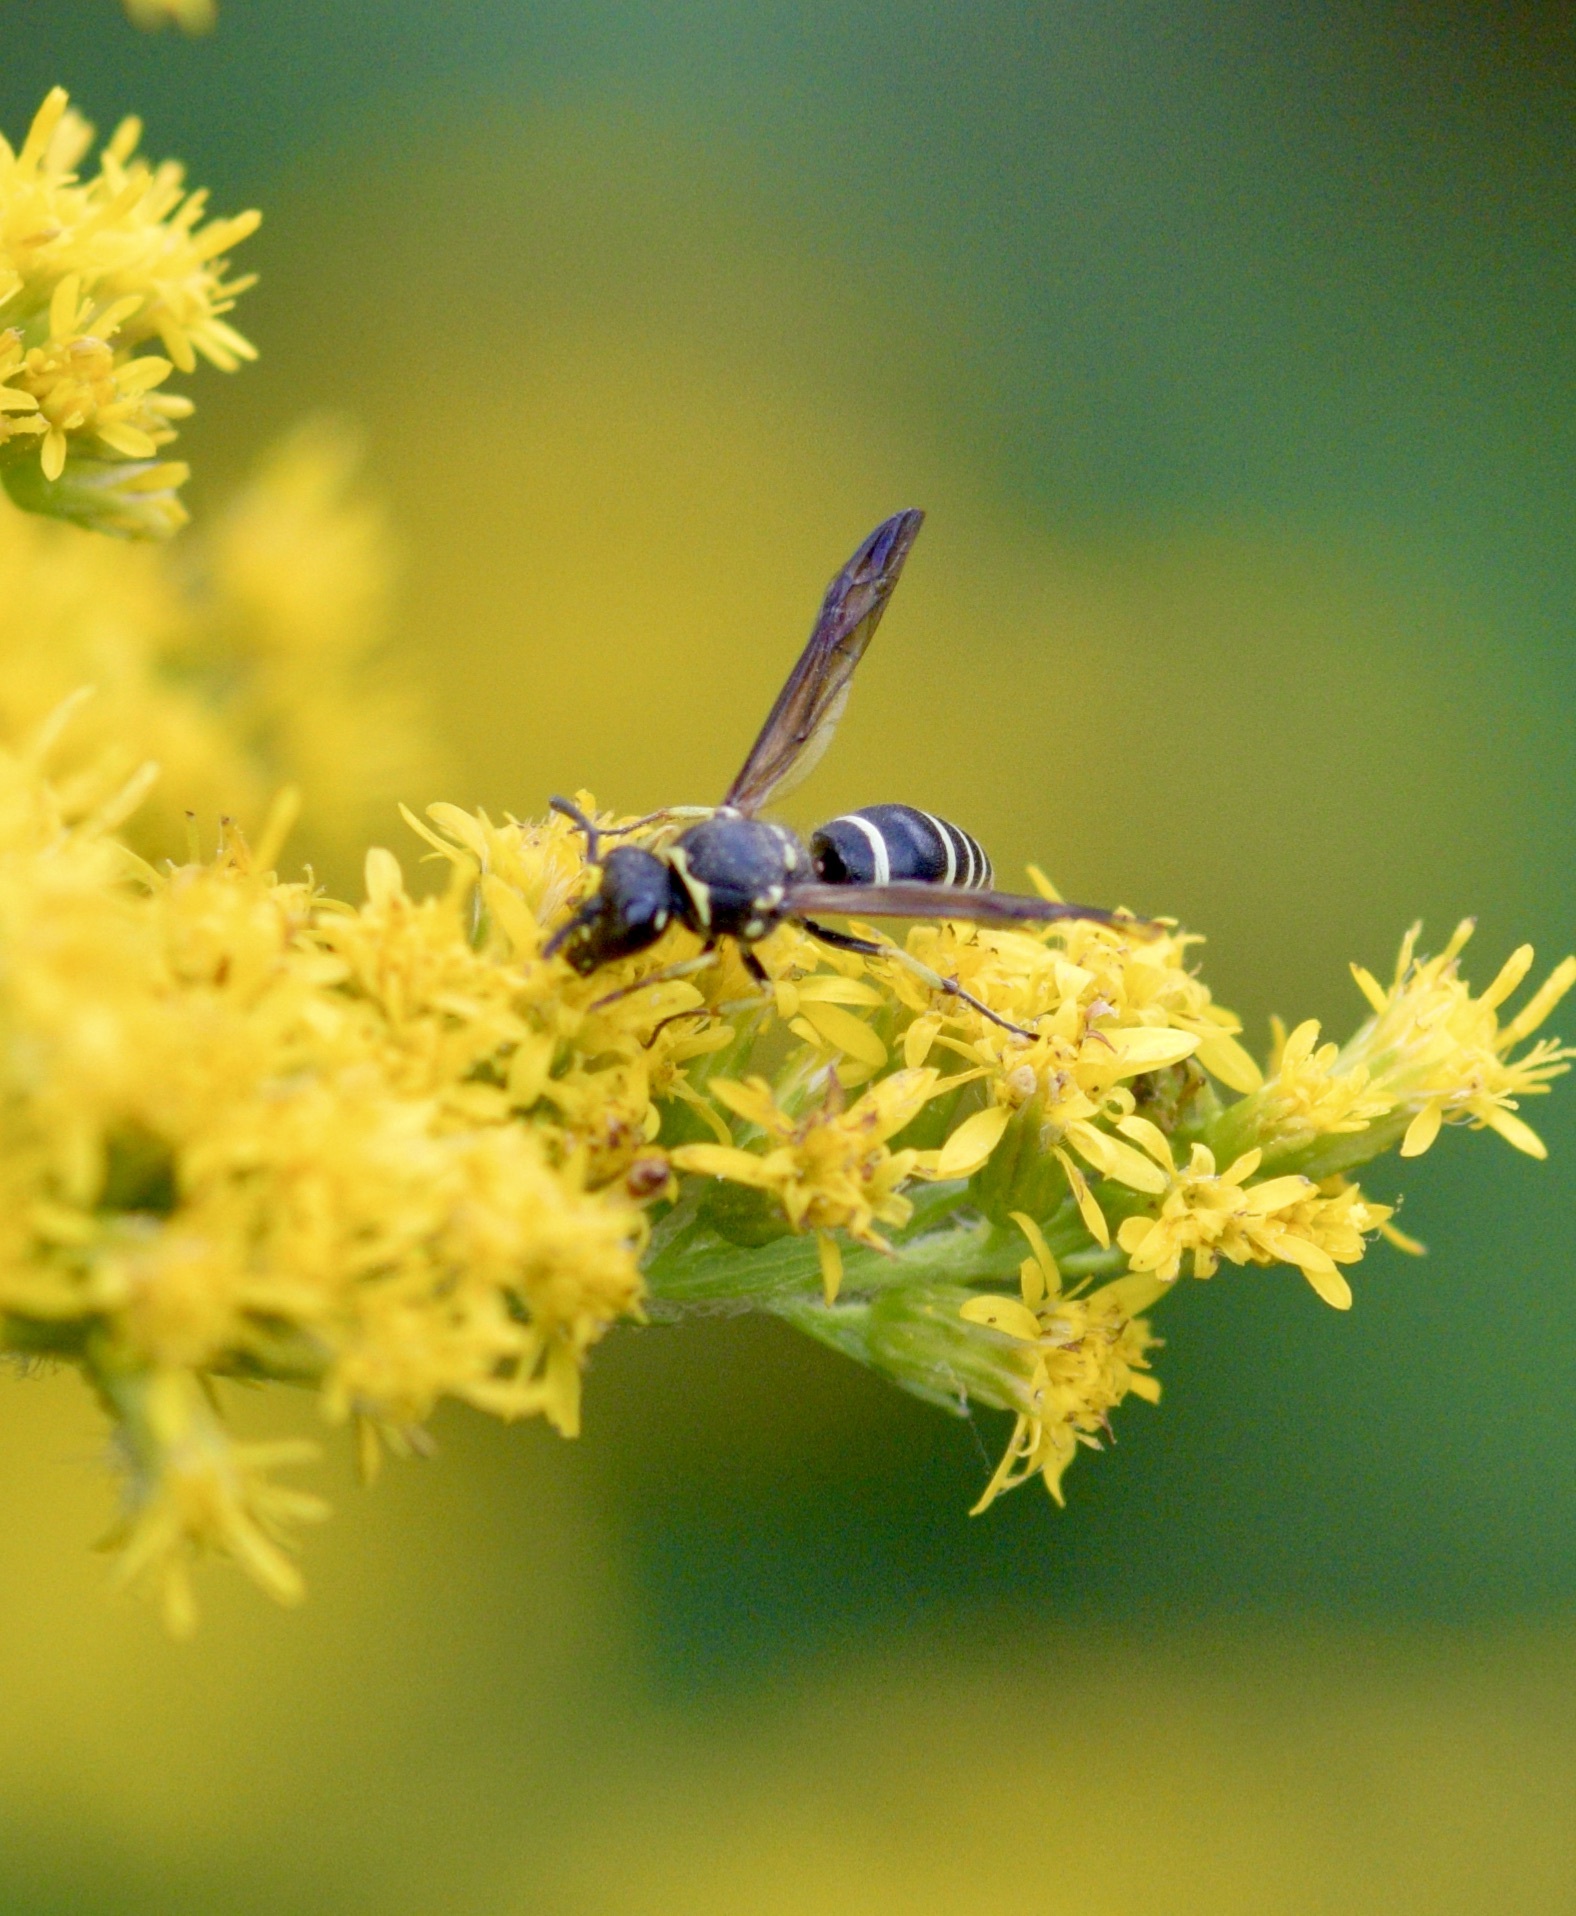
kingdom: Animalia
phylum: Arthropoda
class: Insecta
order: Hymenoptera
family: Vespidae
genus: Ancistrocerus
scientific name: Ancistrocerus albophaleratus
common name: White-banded potter wasp
